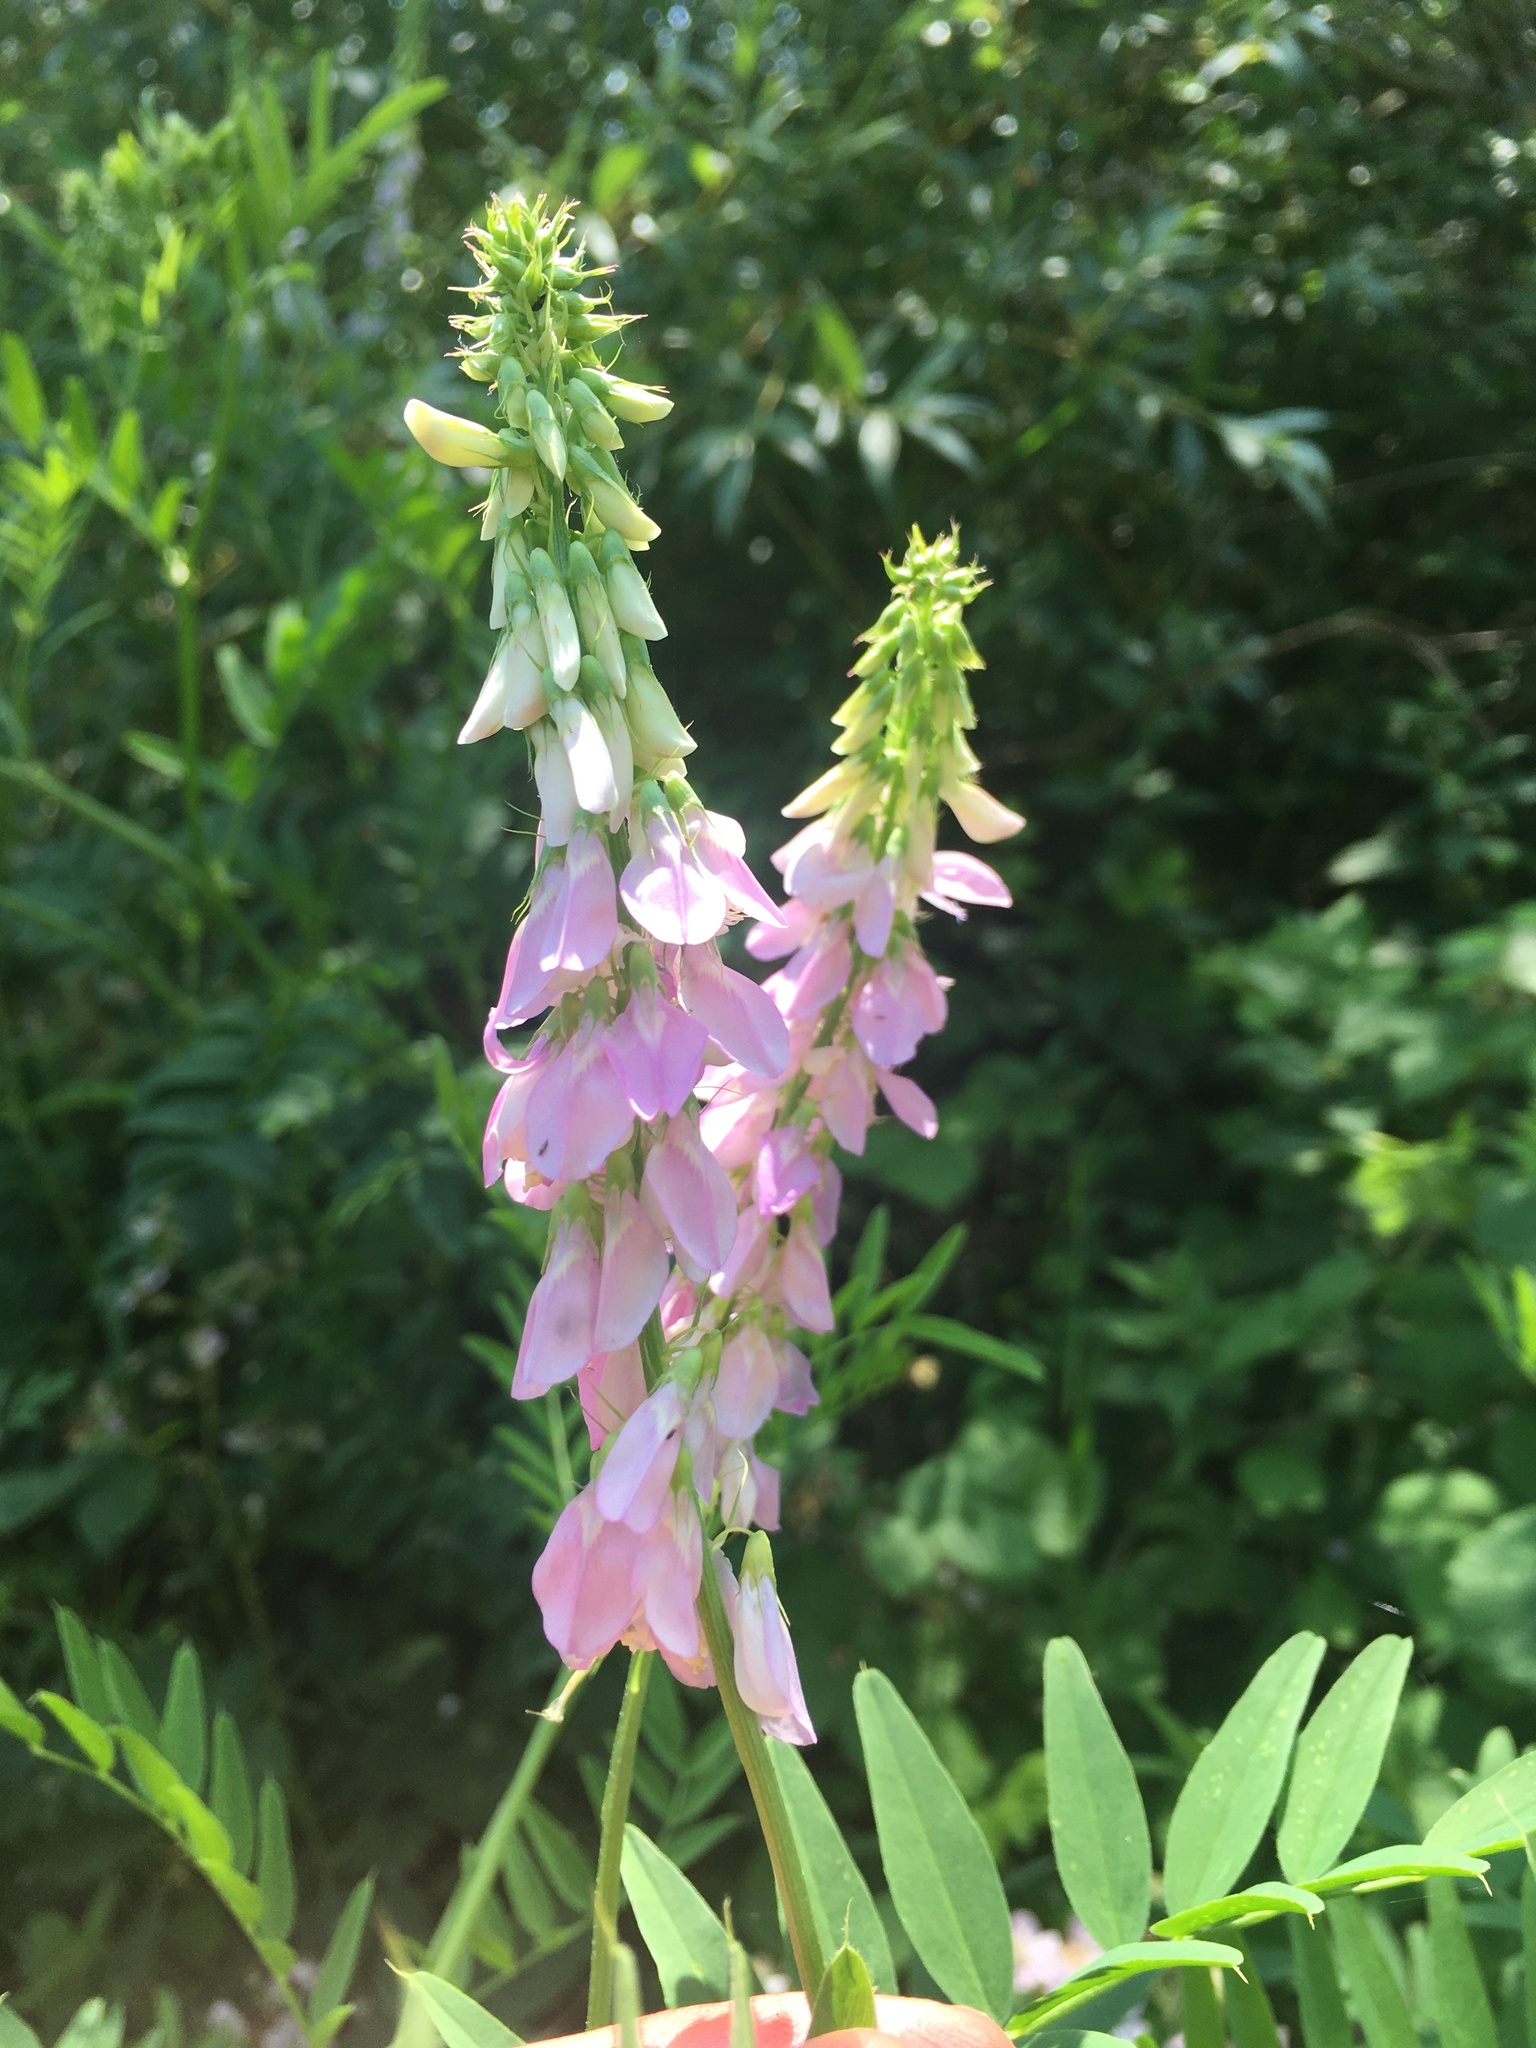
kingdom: Plantae
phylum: Tracheophyta
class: Magnoliopsida
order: Fabales
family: Fabaceae
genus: Galega
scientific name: Galega officinalis
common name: Goat's-rue
